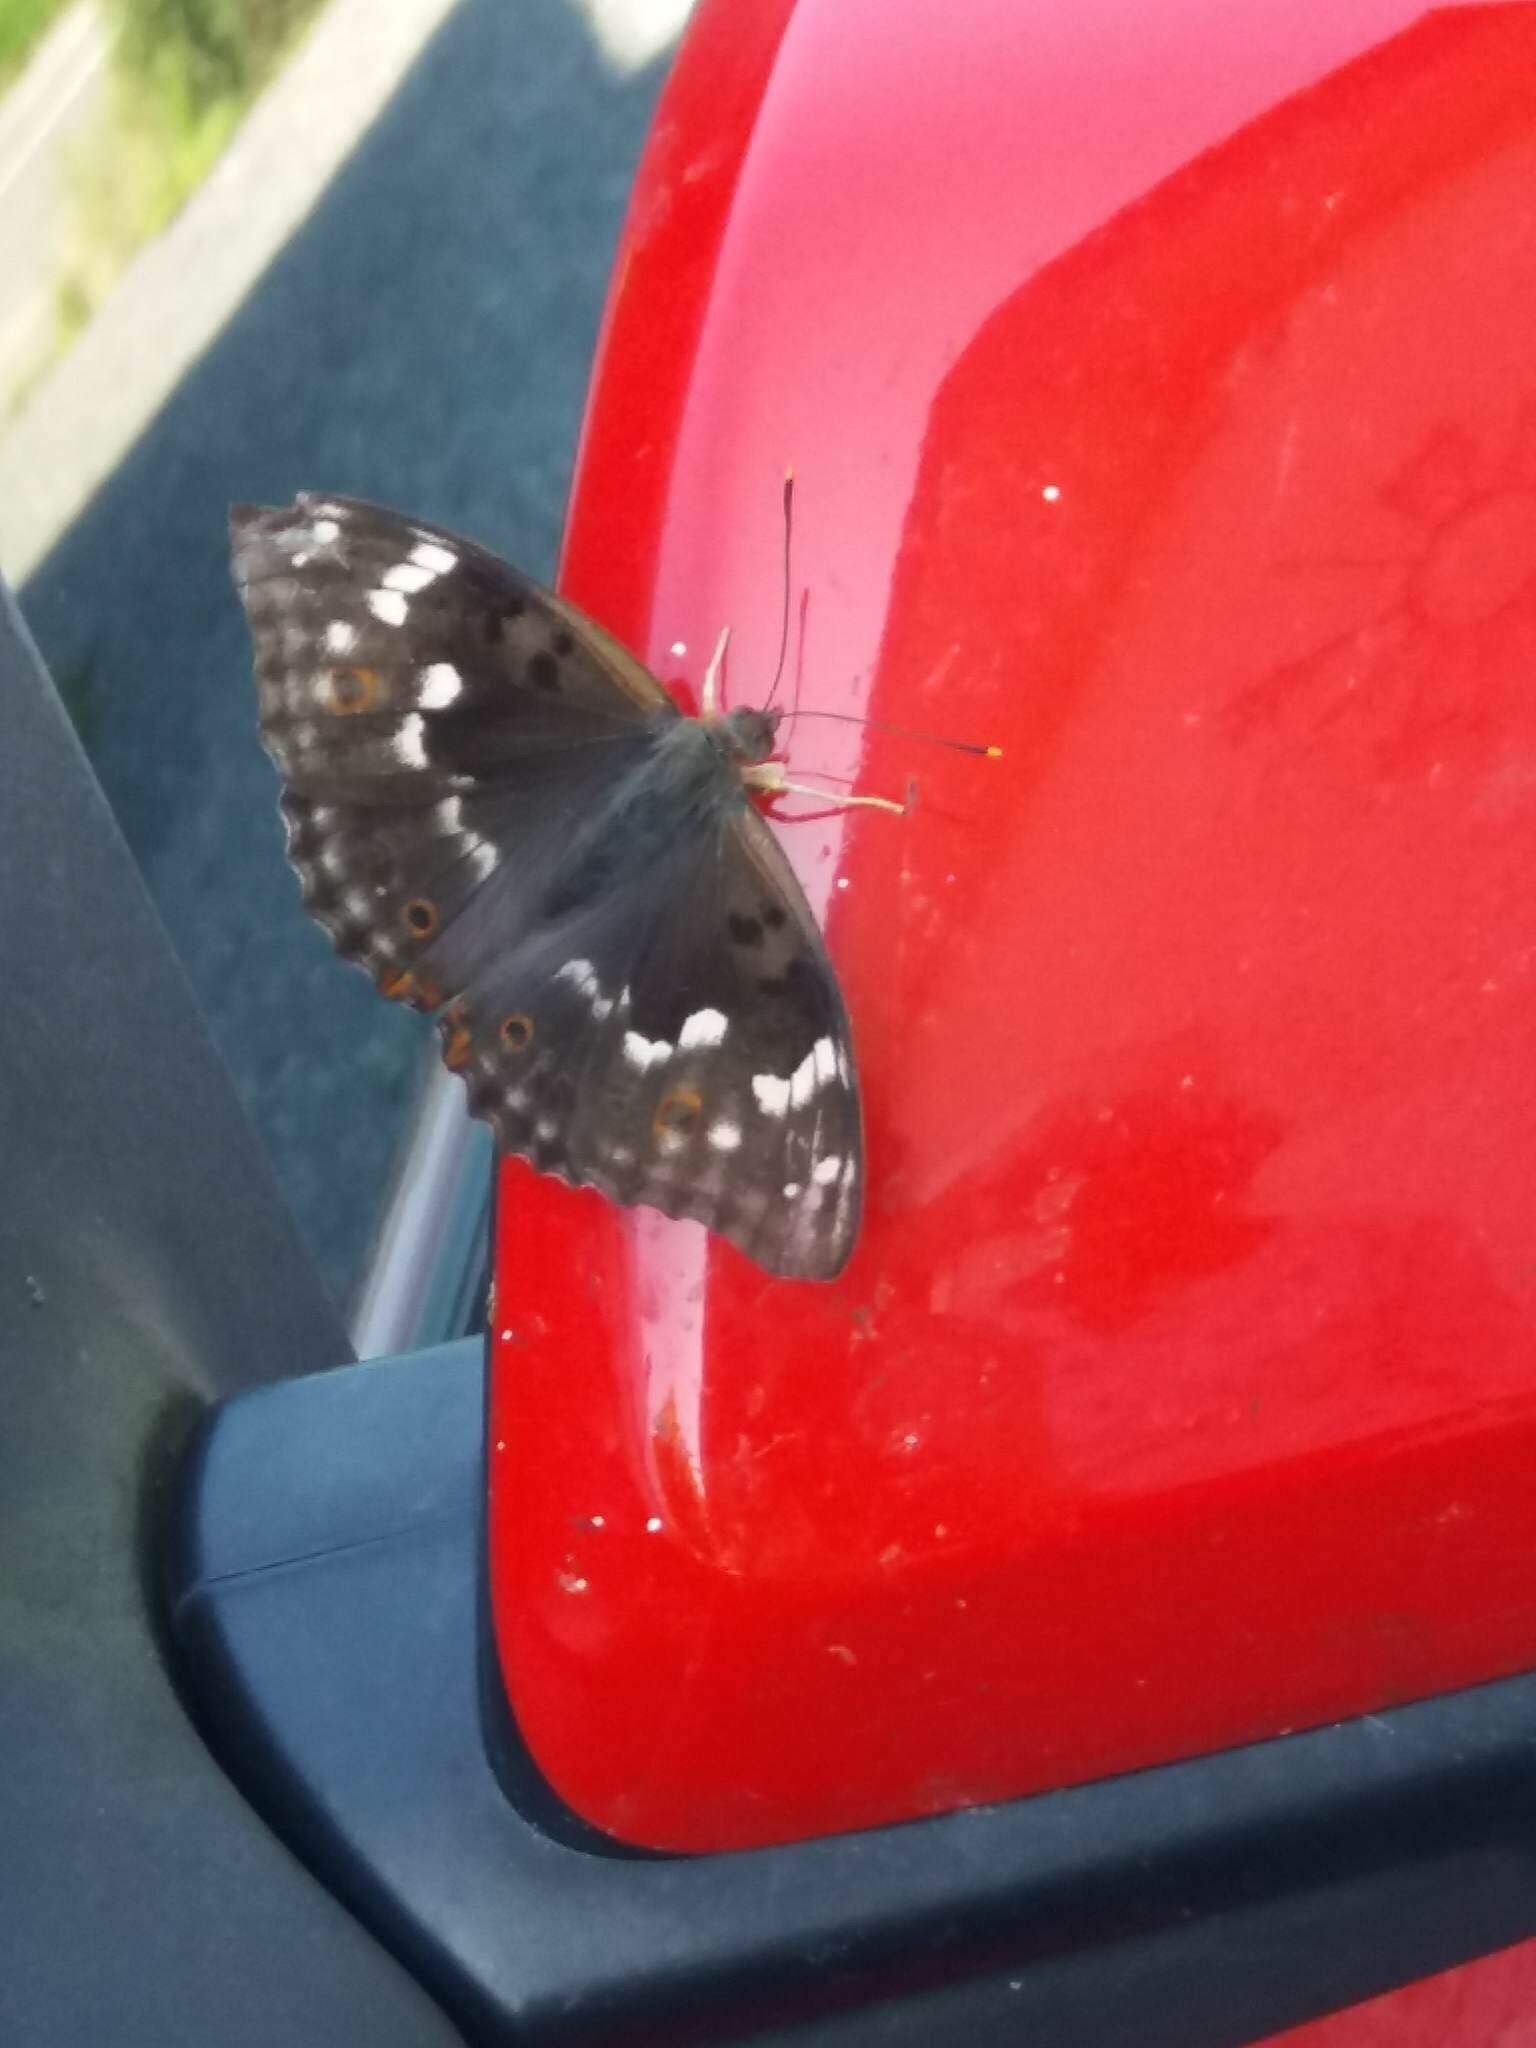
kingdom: Animalia
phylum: Arthropoda
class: Insecta
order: Lepidoptera
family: Nymphalidae
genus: Apatura
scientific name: Apatura ilia
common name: Lesser purple emperor
